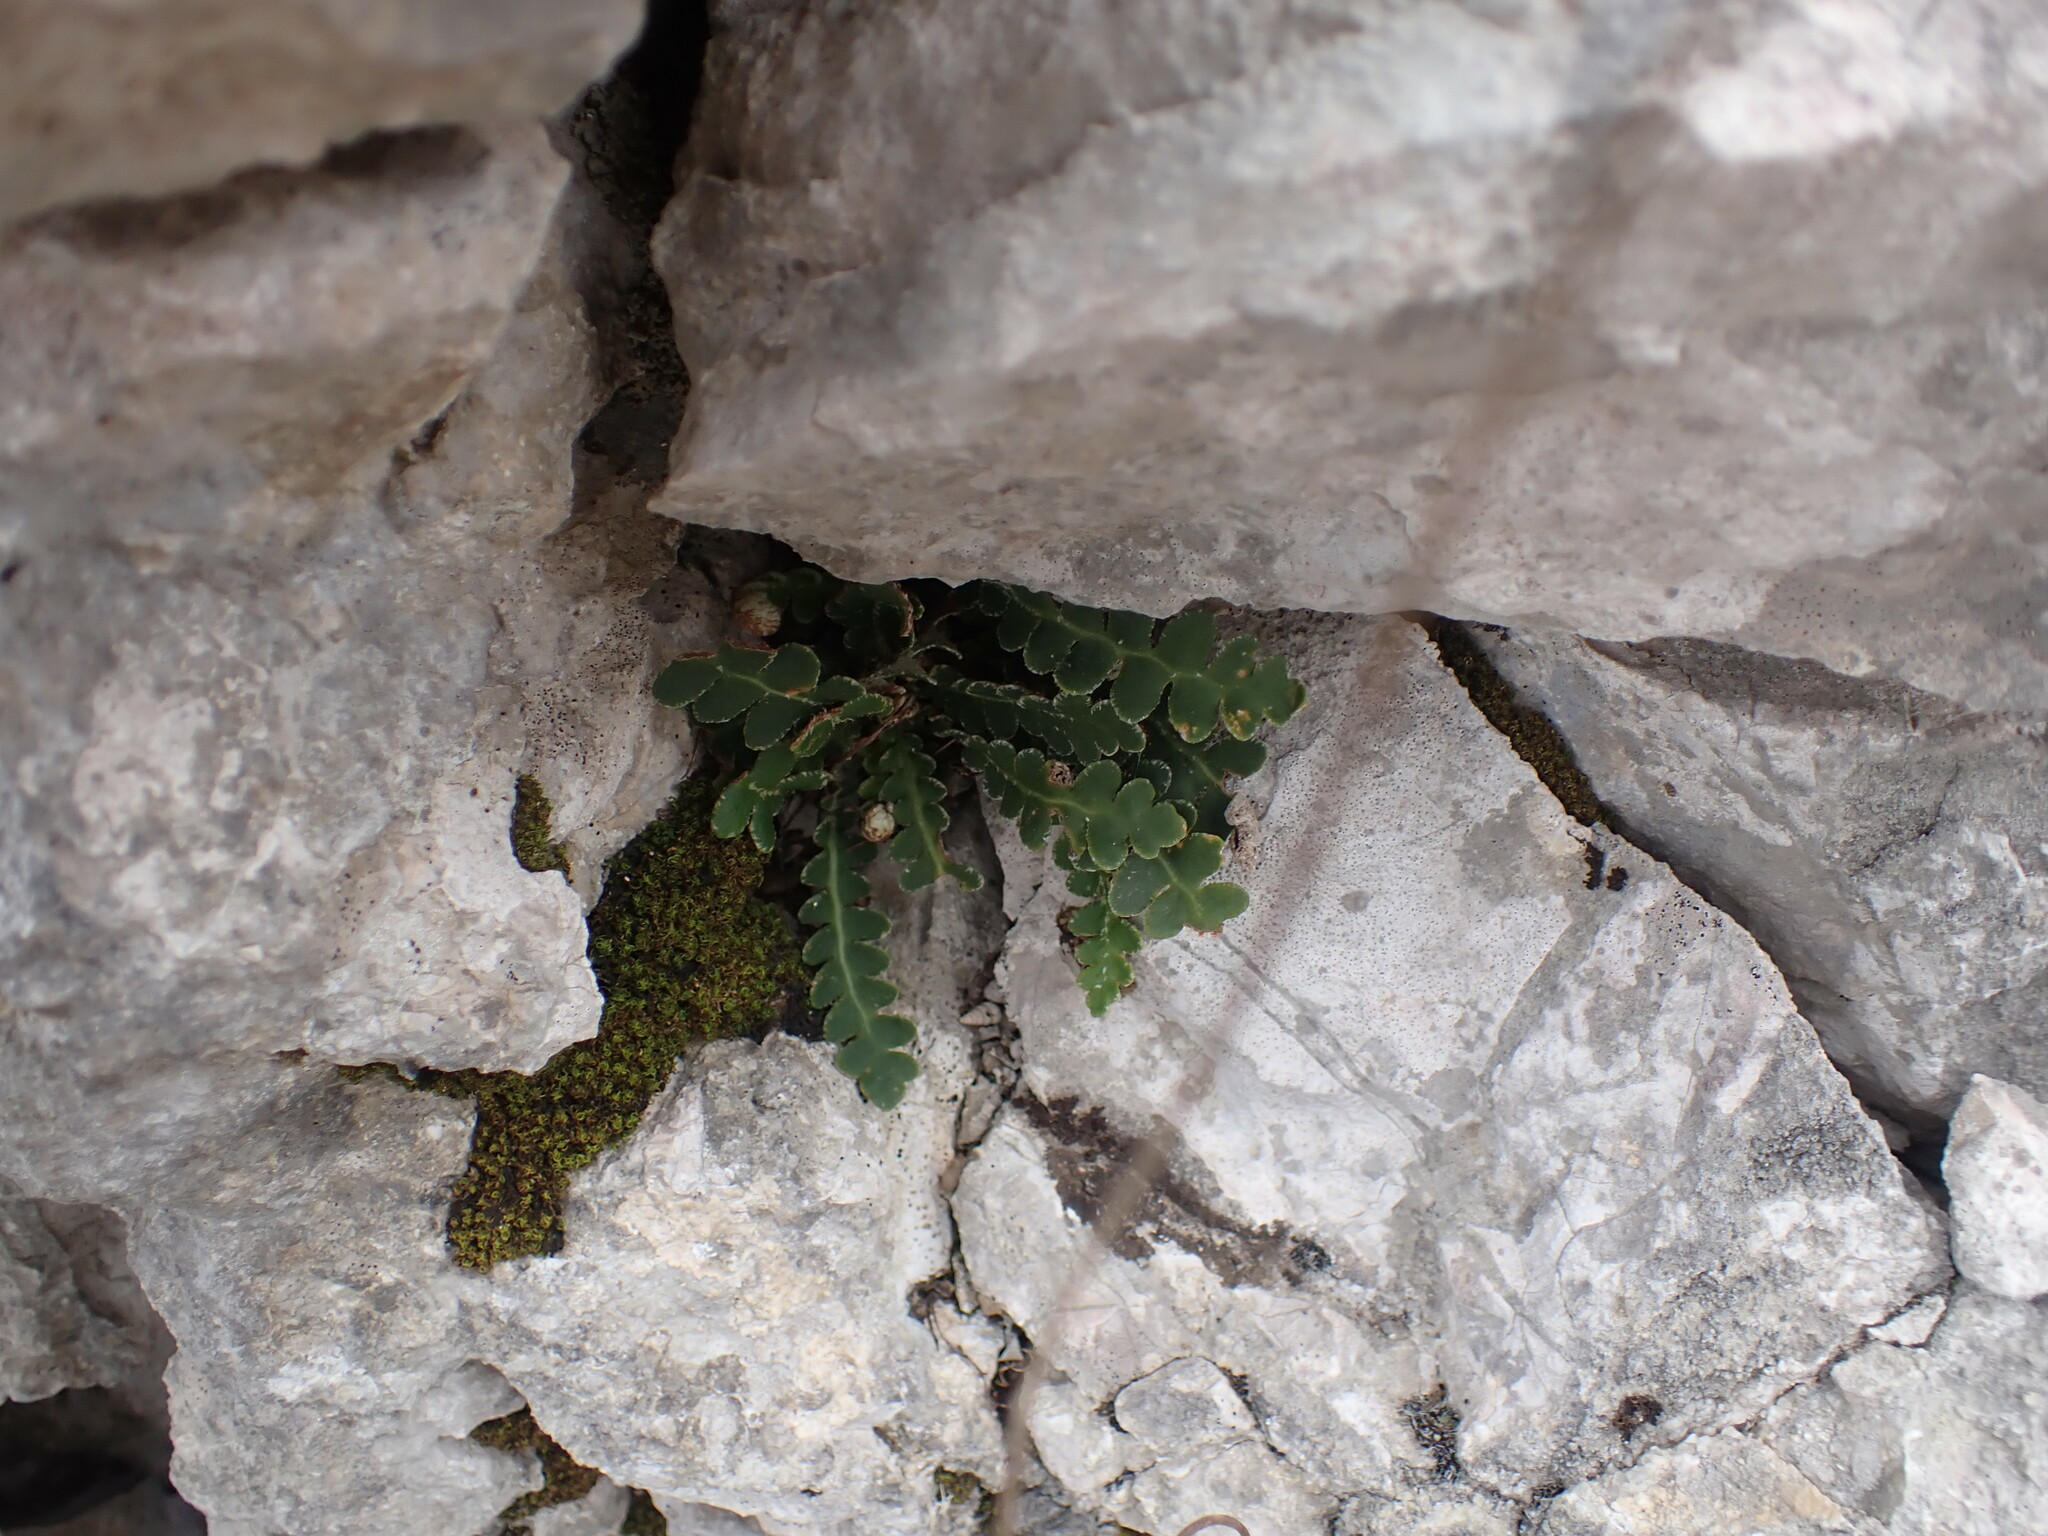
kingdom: Plantae
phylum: Tracheophyta
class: Polypodiopsida
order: Polypodiales
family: Aspleniaceae
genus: Asplenium
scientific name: Asplenium ceterach
